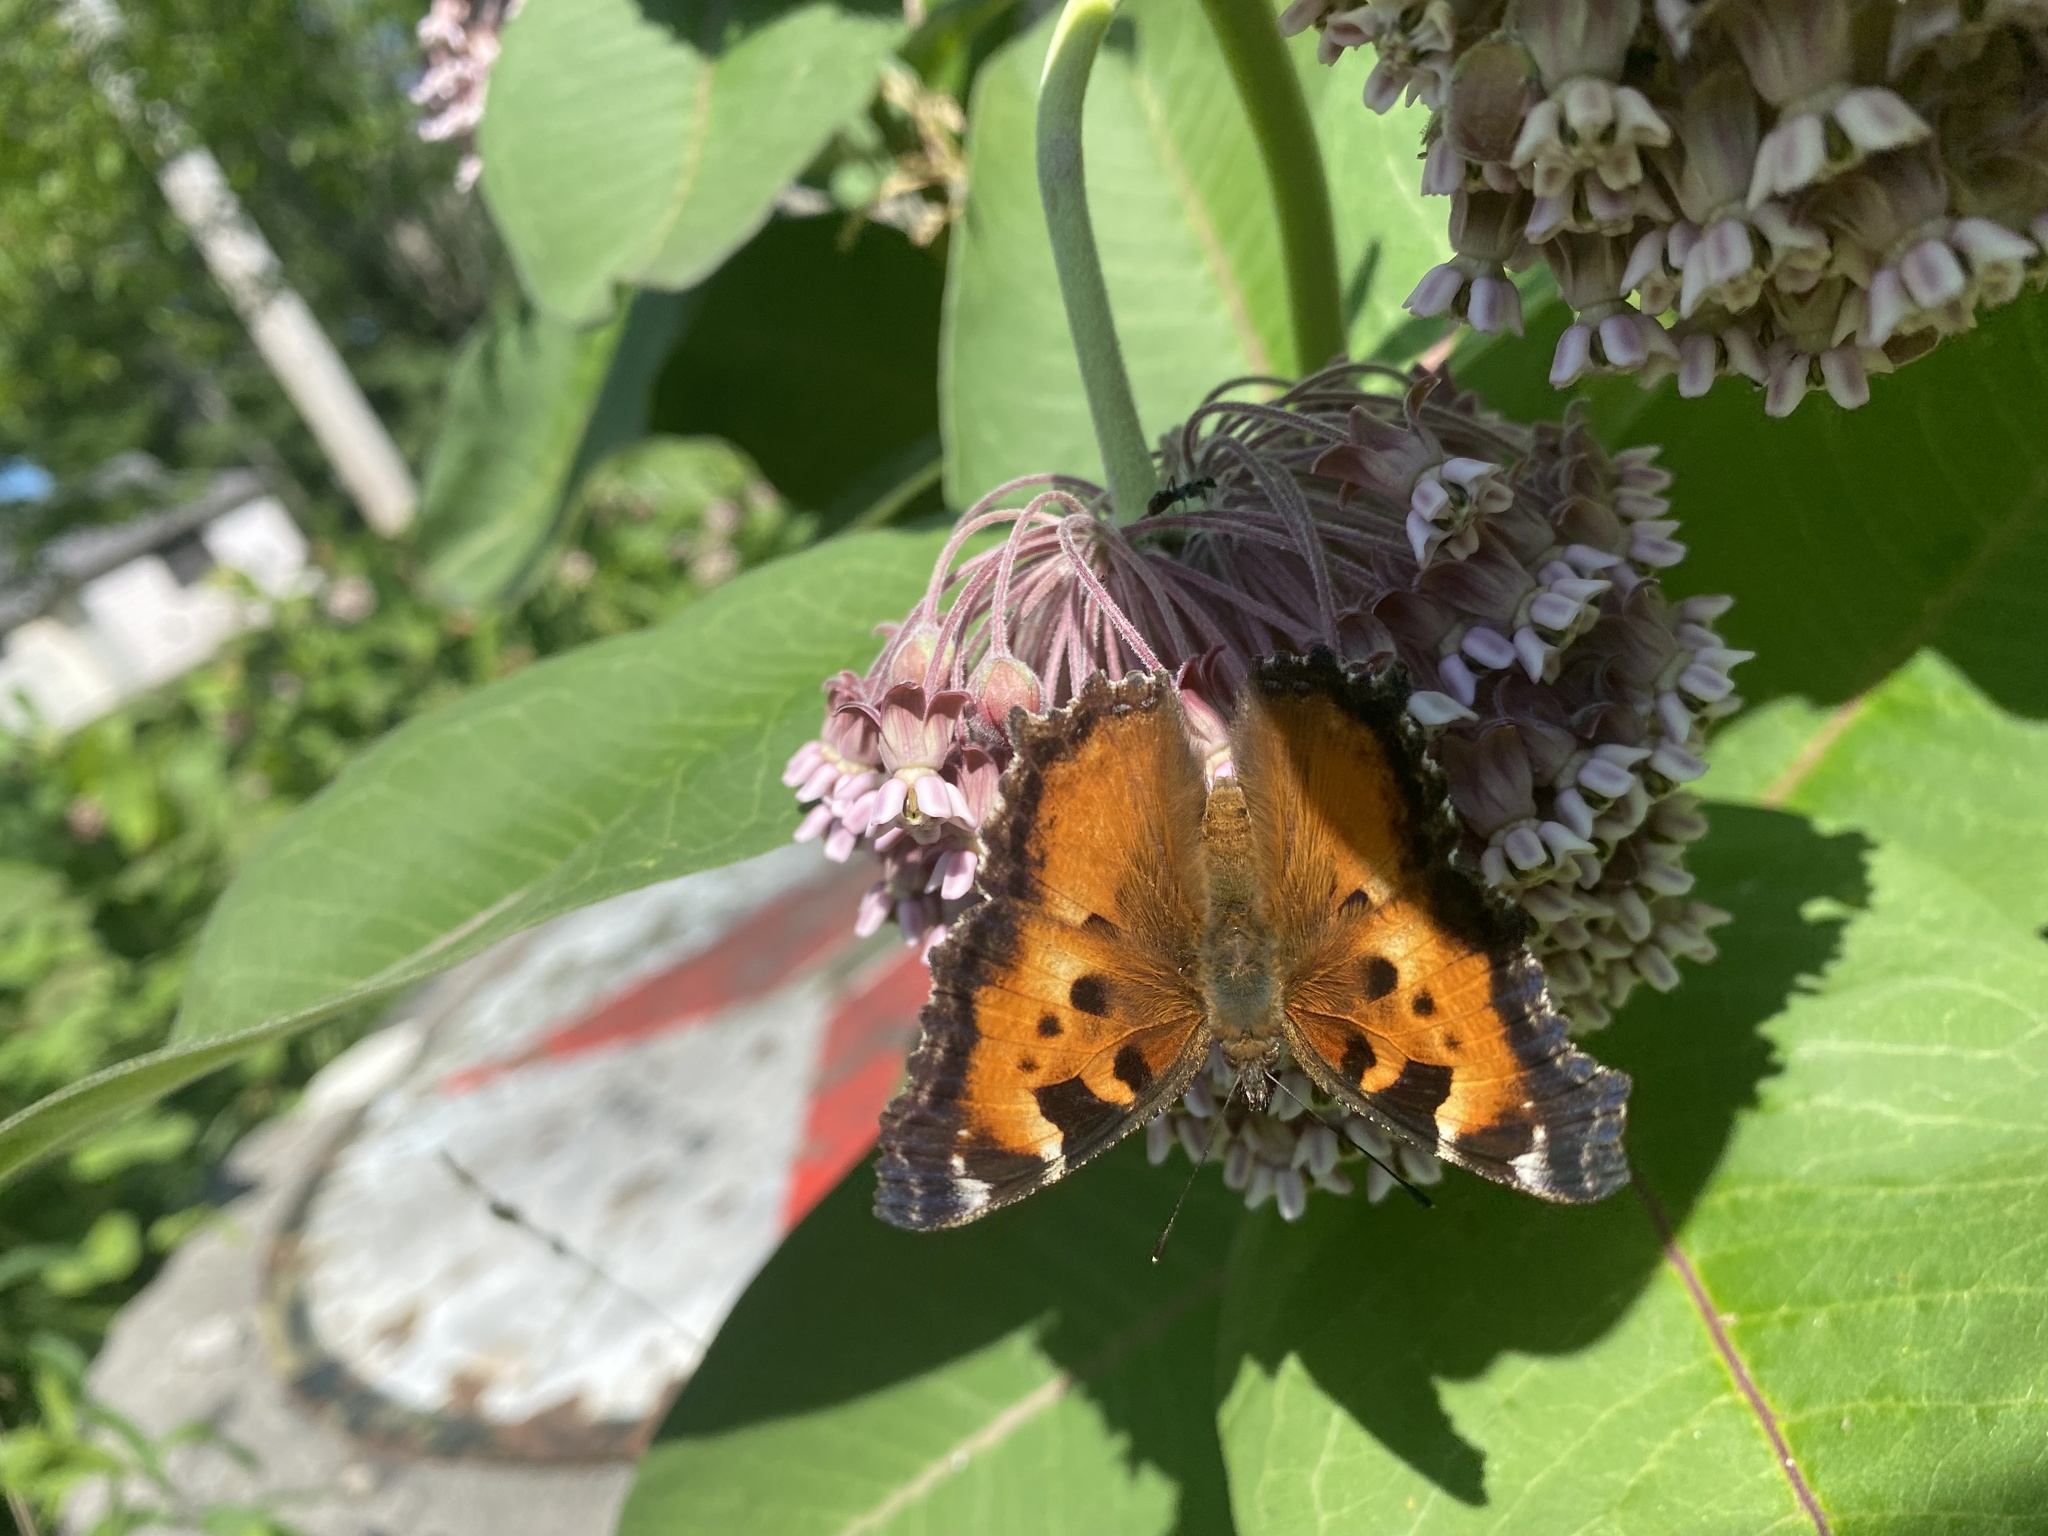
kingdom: Animalia
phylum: Arthropoda
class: Insecta
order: Lepidoptera
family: Nymphalidae
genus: Nymphalis
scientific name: Nymphalis californica
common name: California tortoiseshell
